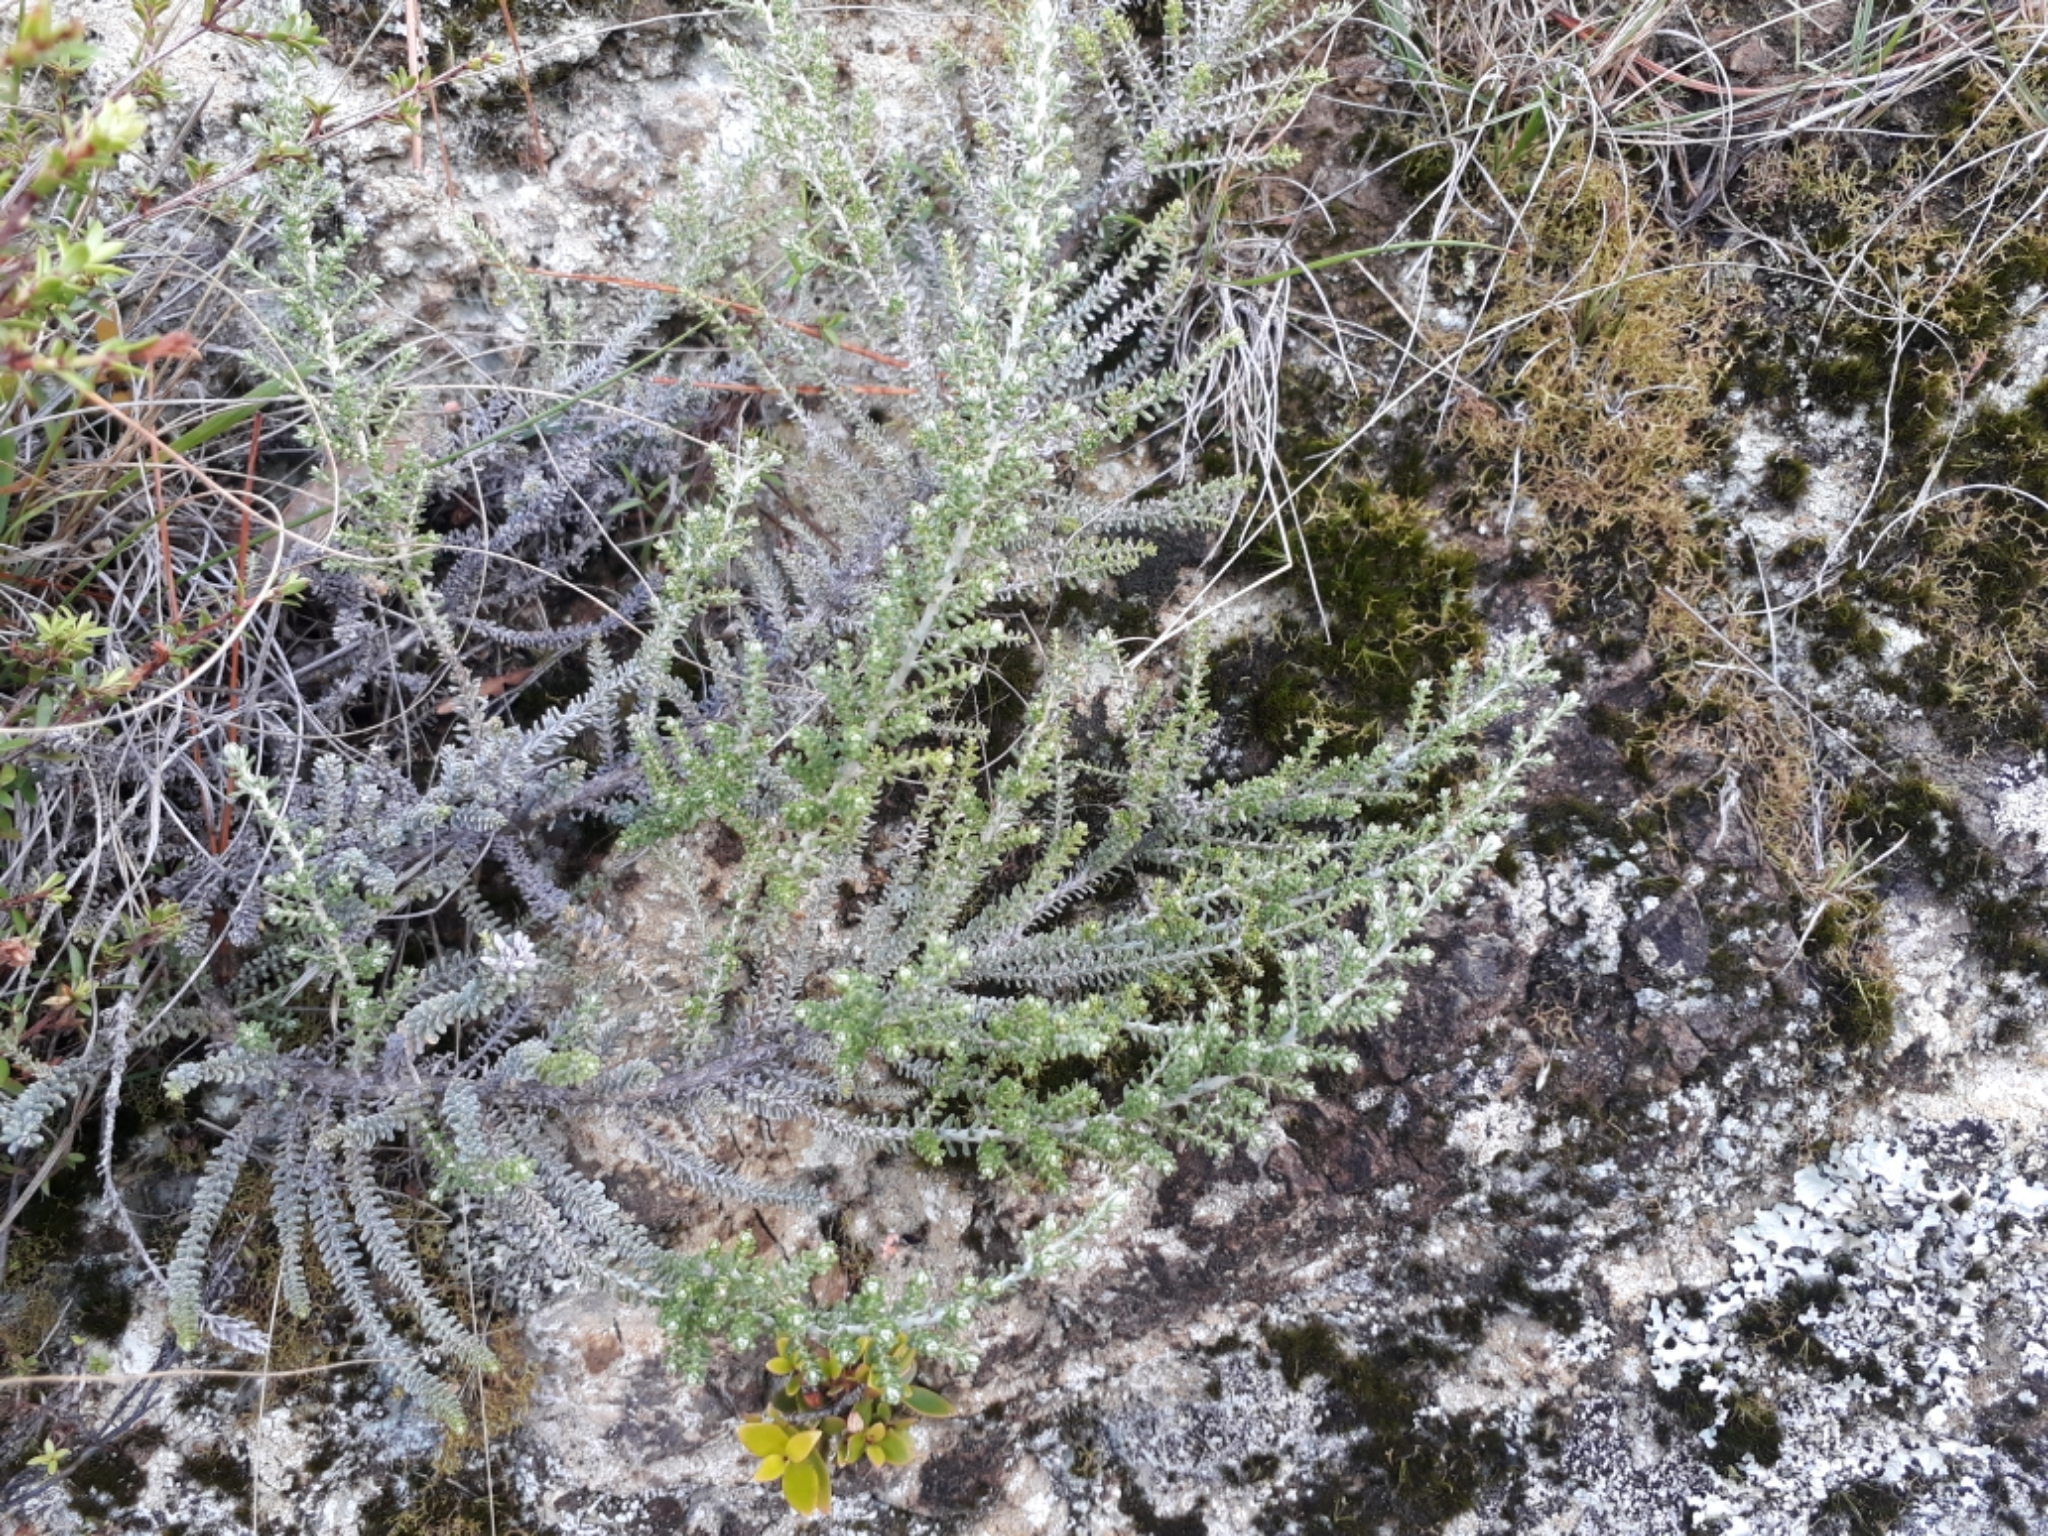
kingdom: Plantae
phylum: Tracheophyta
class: Magnoliopsida
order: Asterales
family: Asteraceae
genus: Ozothamnus
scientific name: Ozothamnus leptophyllus
